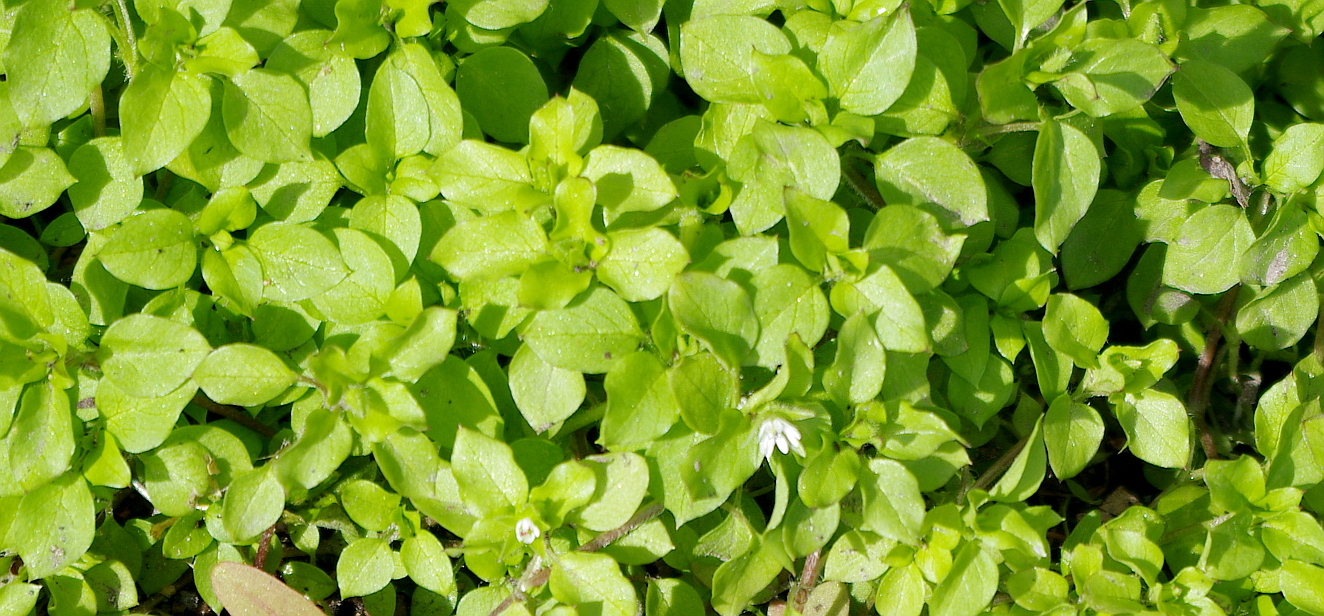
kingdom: Plantae
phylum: Tracheophyta
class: Magnoliopsida
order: Caryophyllales
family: Caryophyllaceae
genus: Stellaria
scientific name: Stellaria media
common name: Common chickweed
